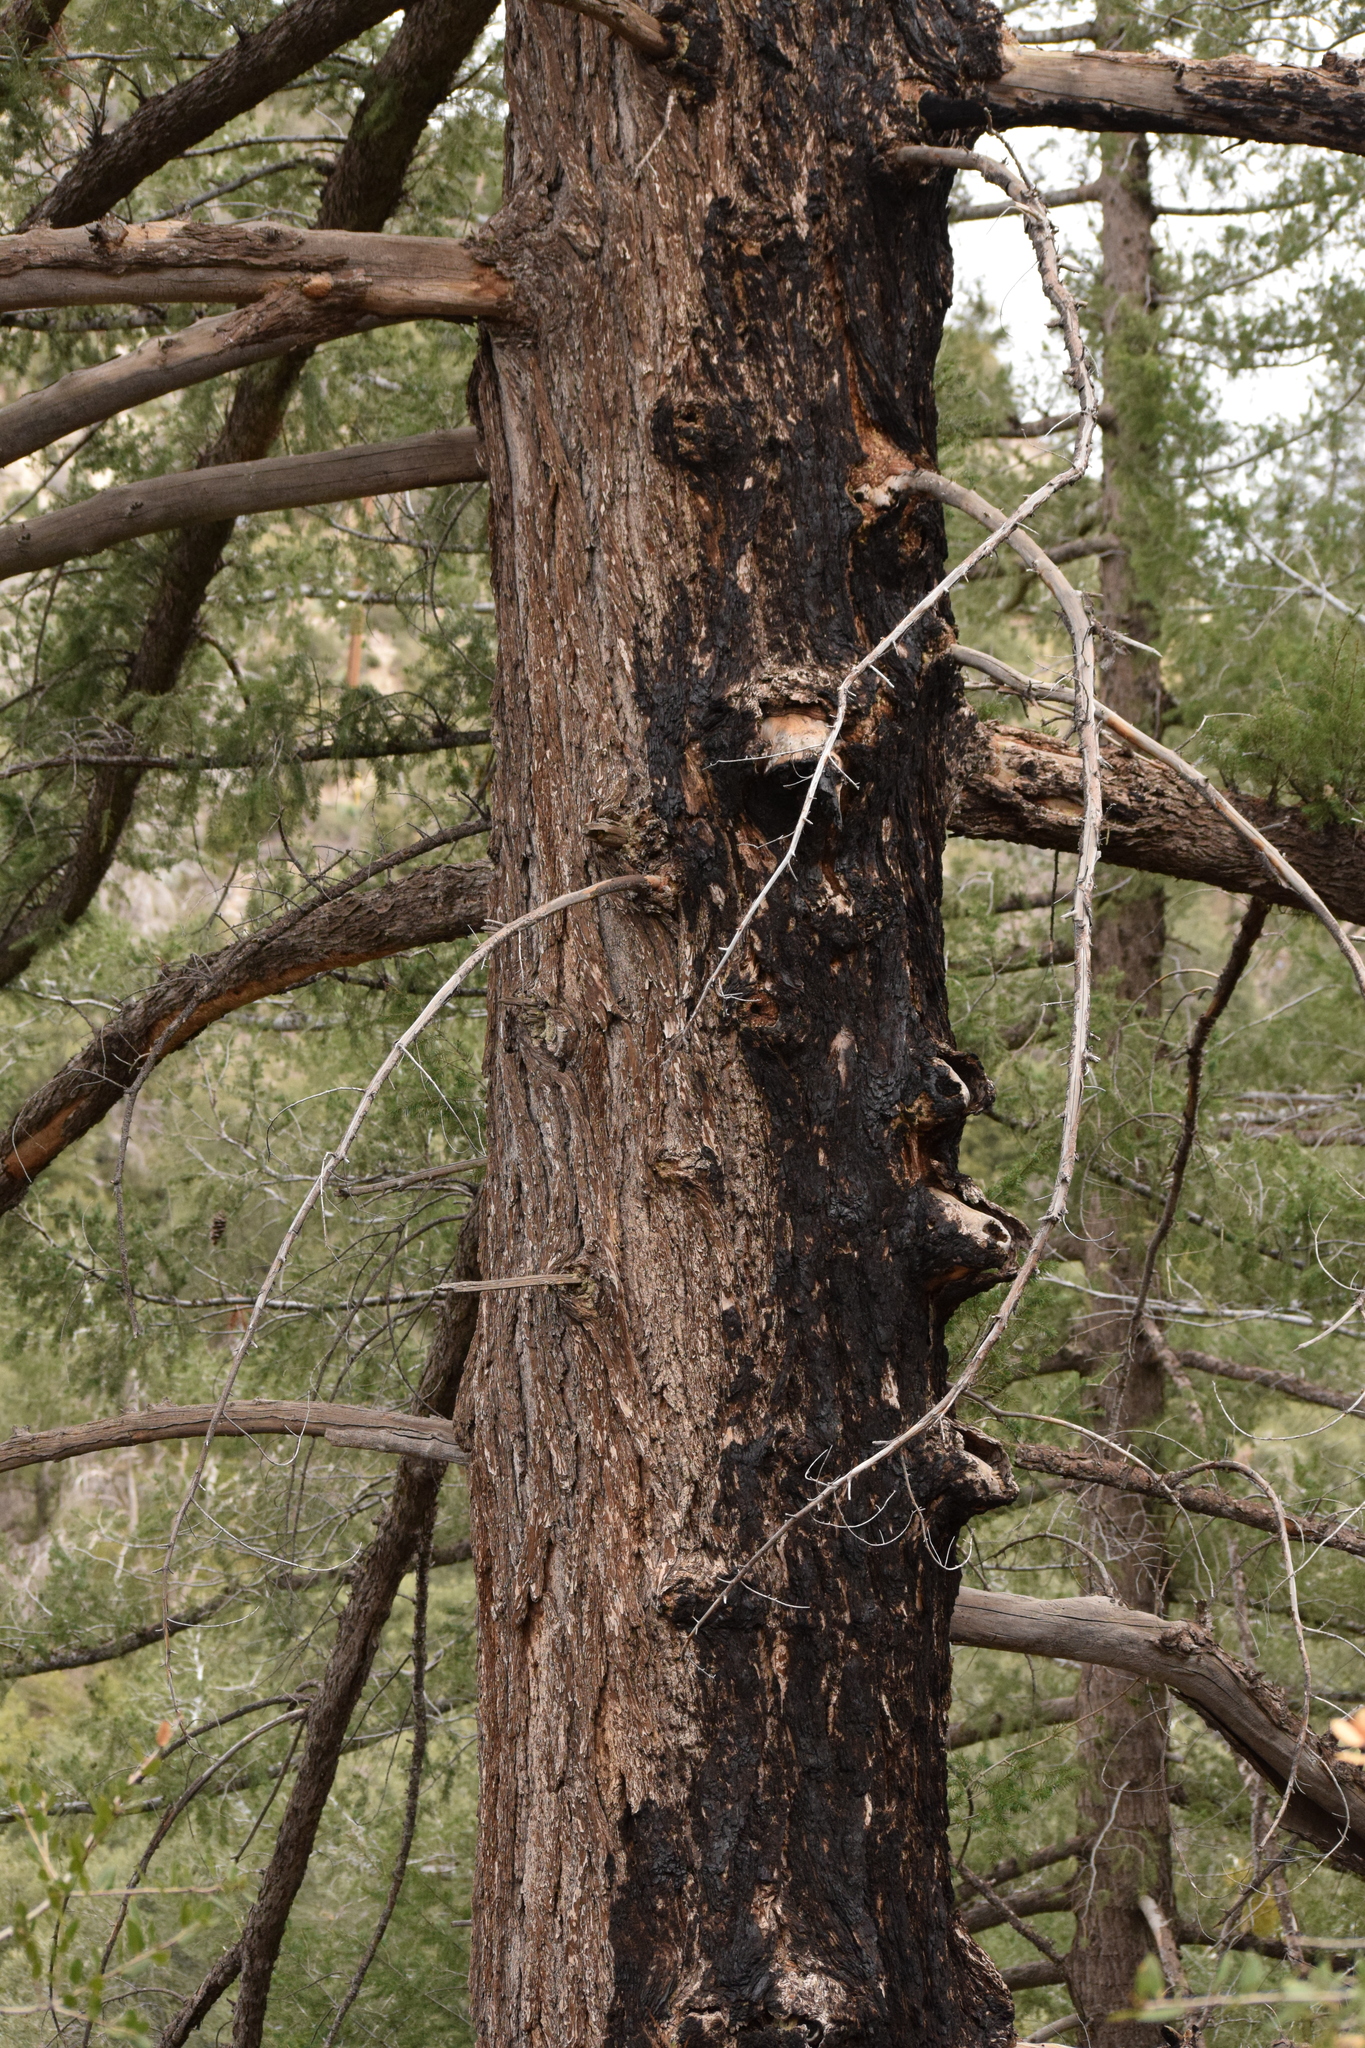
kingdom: Plantae
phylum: Tracheophyta
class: Pinopsida
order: Pinales
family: Pinaceae
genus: Pseudotsuga
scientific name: Pseudotsuga macrocarpa
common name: Big-cone douglas-fir
